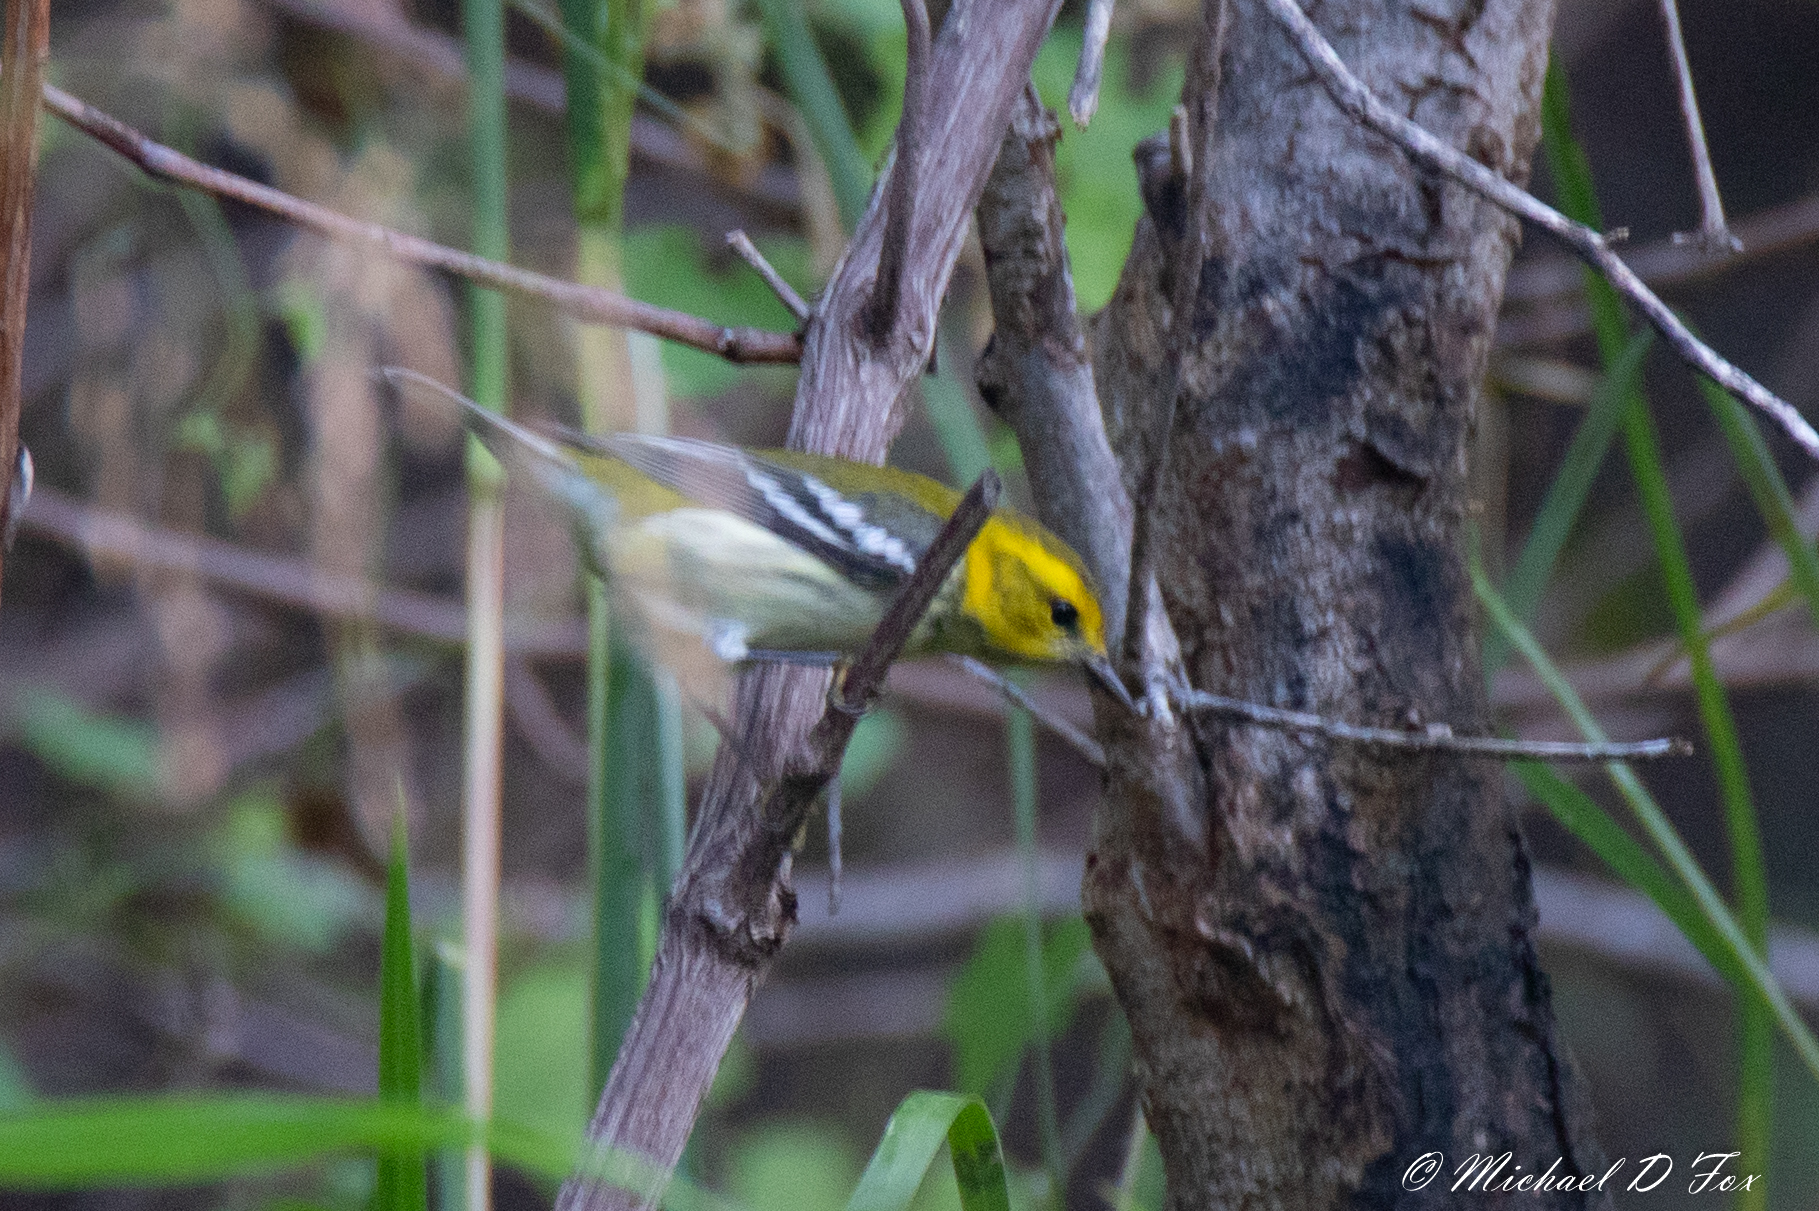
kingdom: Animalia
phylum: Chordata
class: Aves
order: Passeriformes
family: Parulidae
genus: Setophaga
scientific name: Setophaga virens
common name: Black-throated green warbler
